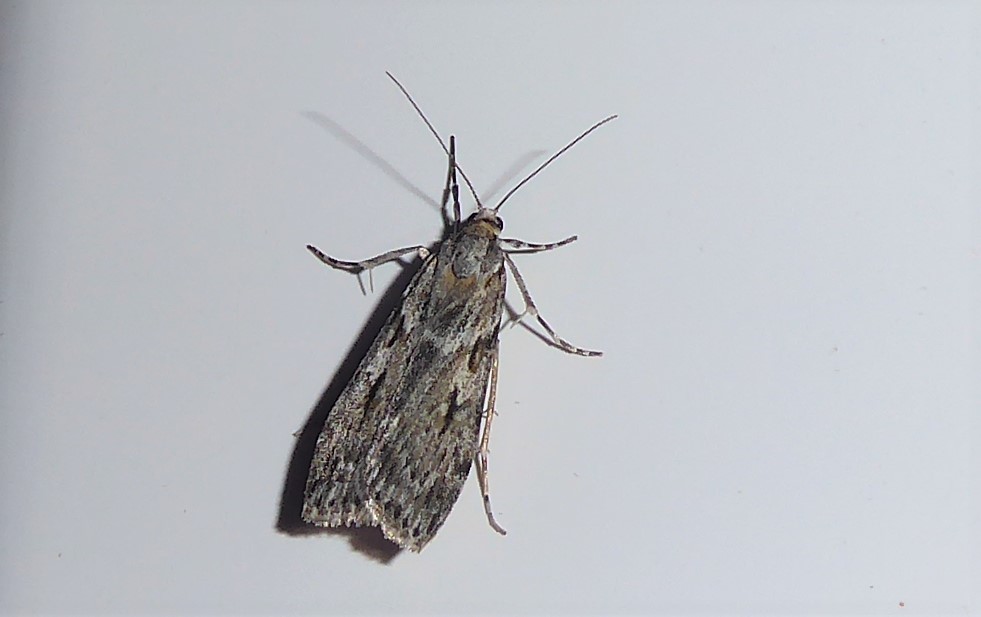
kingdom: Animalia
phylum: Arthropoda
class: Insecta
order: Lepidoptera
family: Crambidae
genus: Scoparia
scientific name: Scoparia halopis
